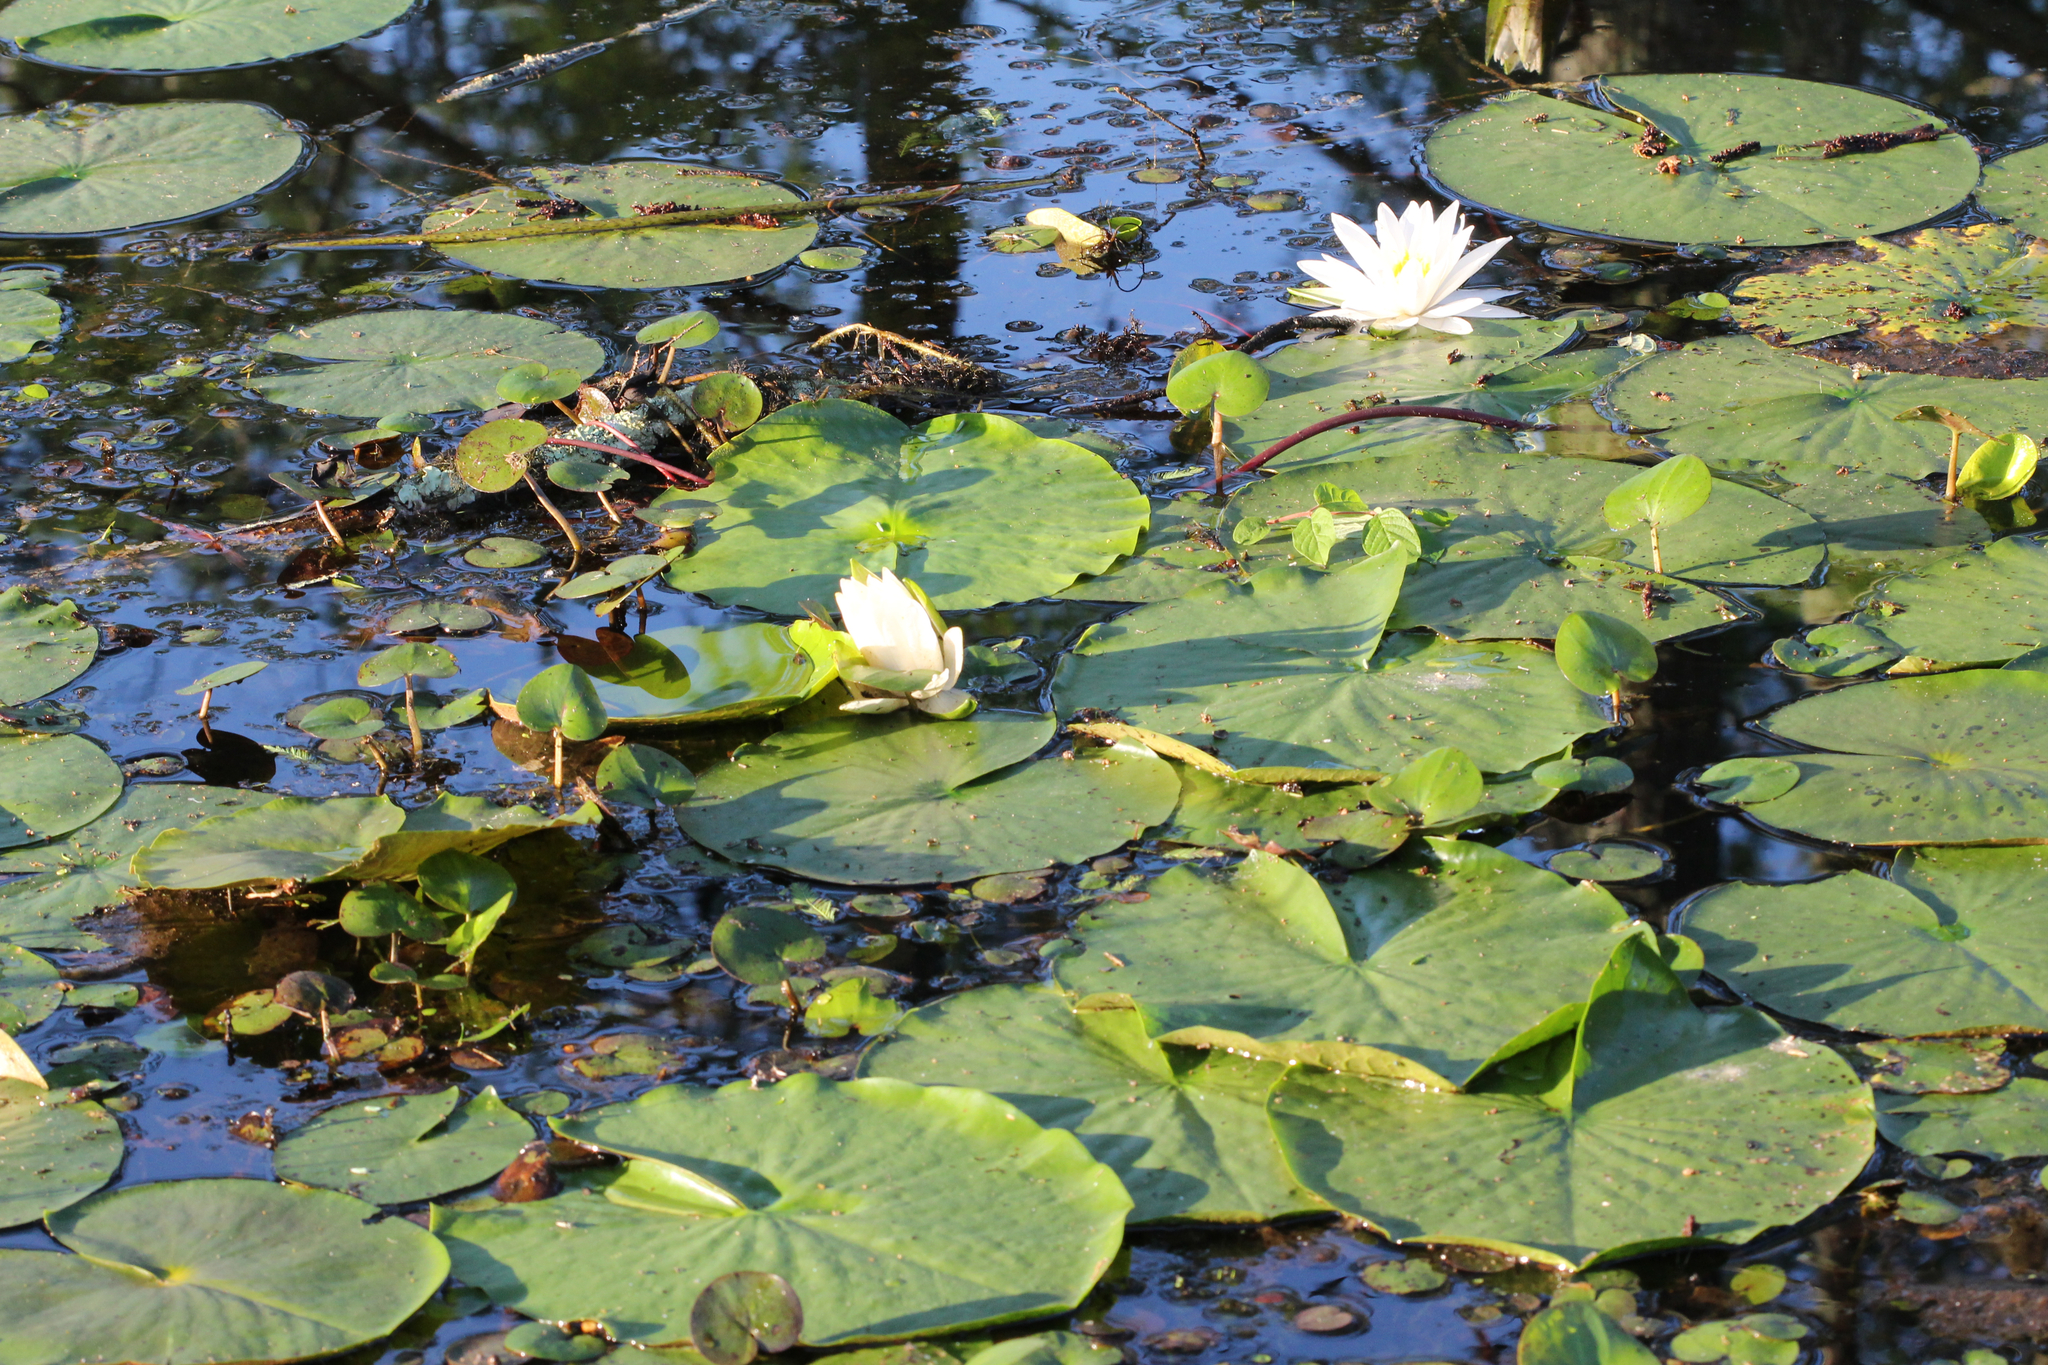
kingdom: Plantae
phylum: Tracheophyta
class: Magnoliopsida
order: Nymphaeales
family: Nymphaeaceae
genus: Nymphaea
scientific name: Nymphaea odorata
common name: Fragrant water-lily
